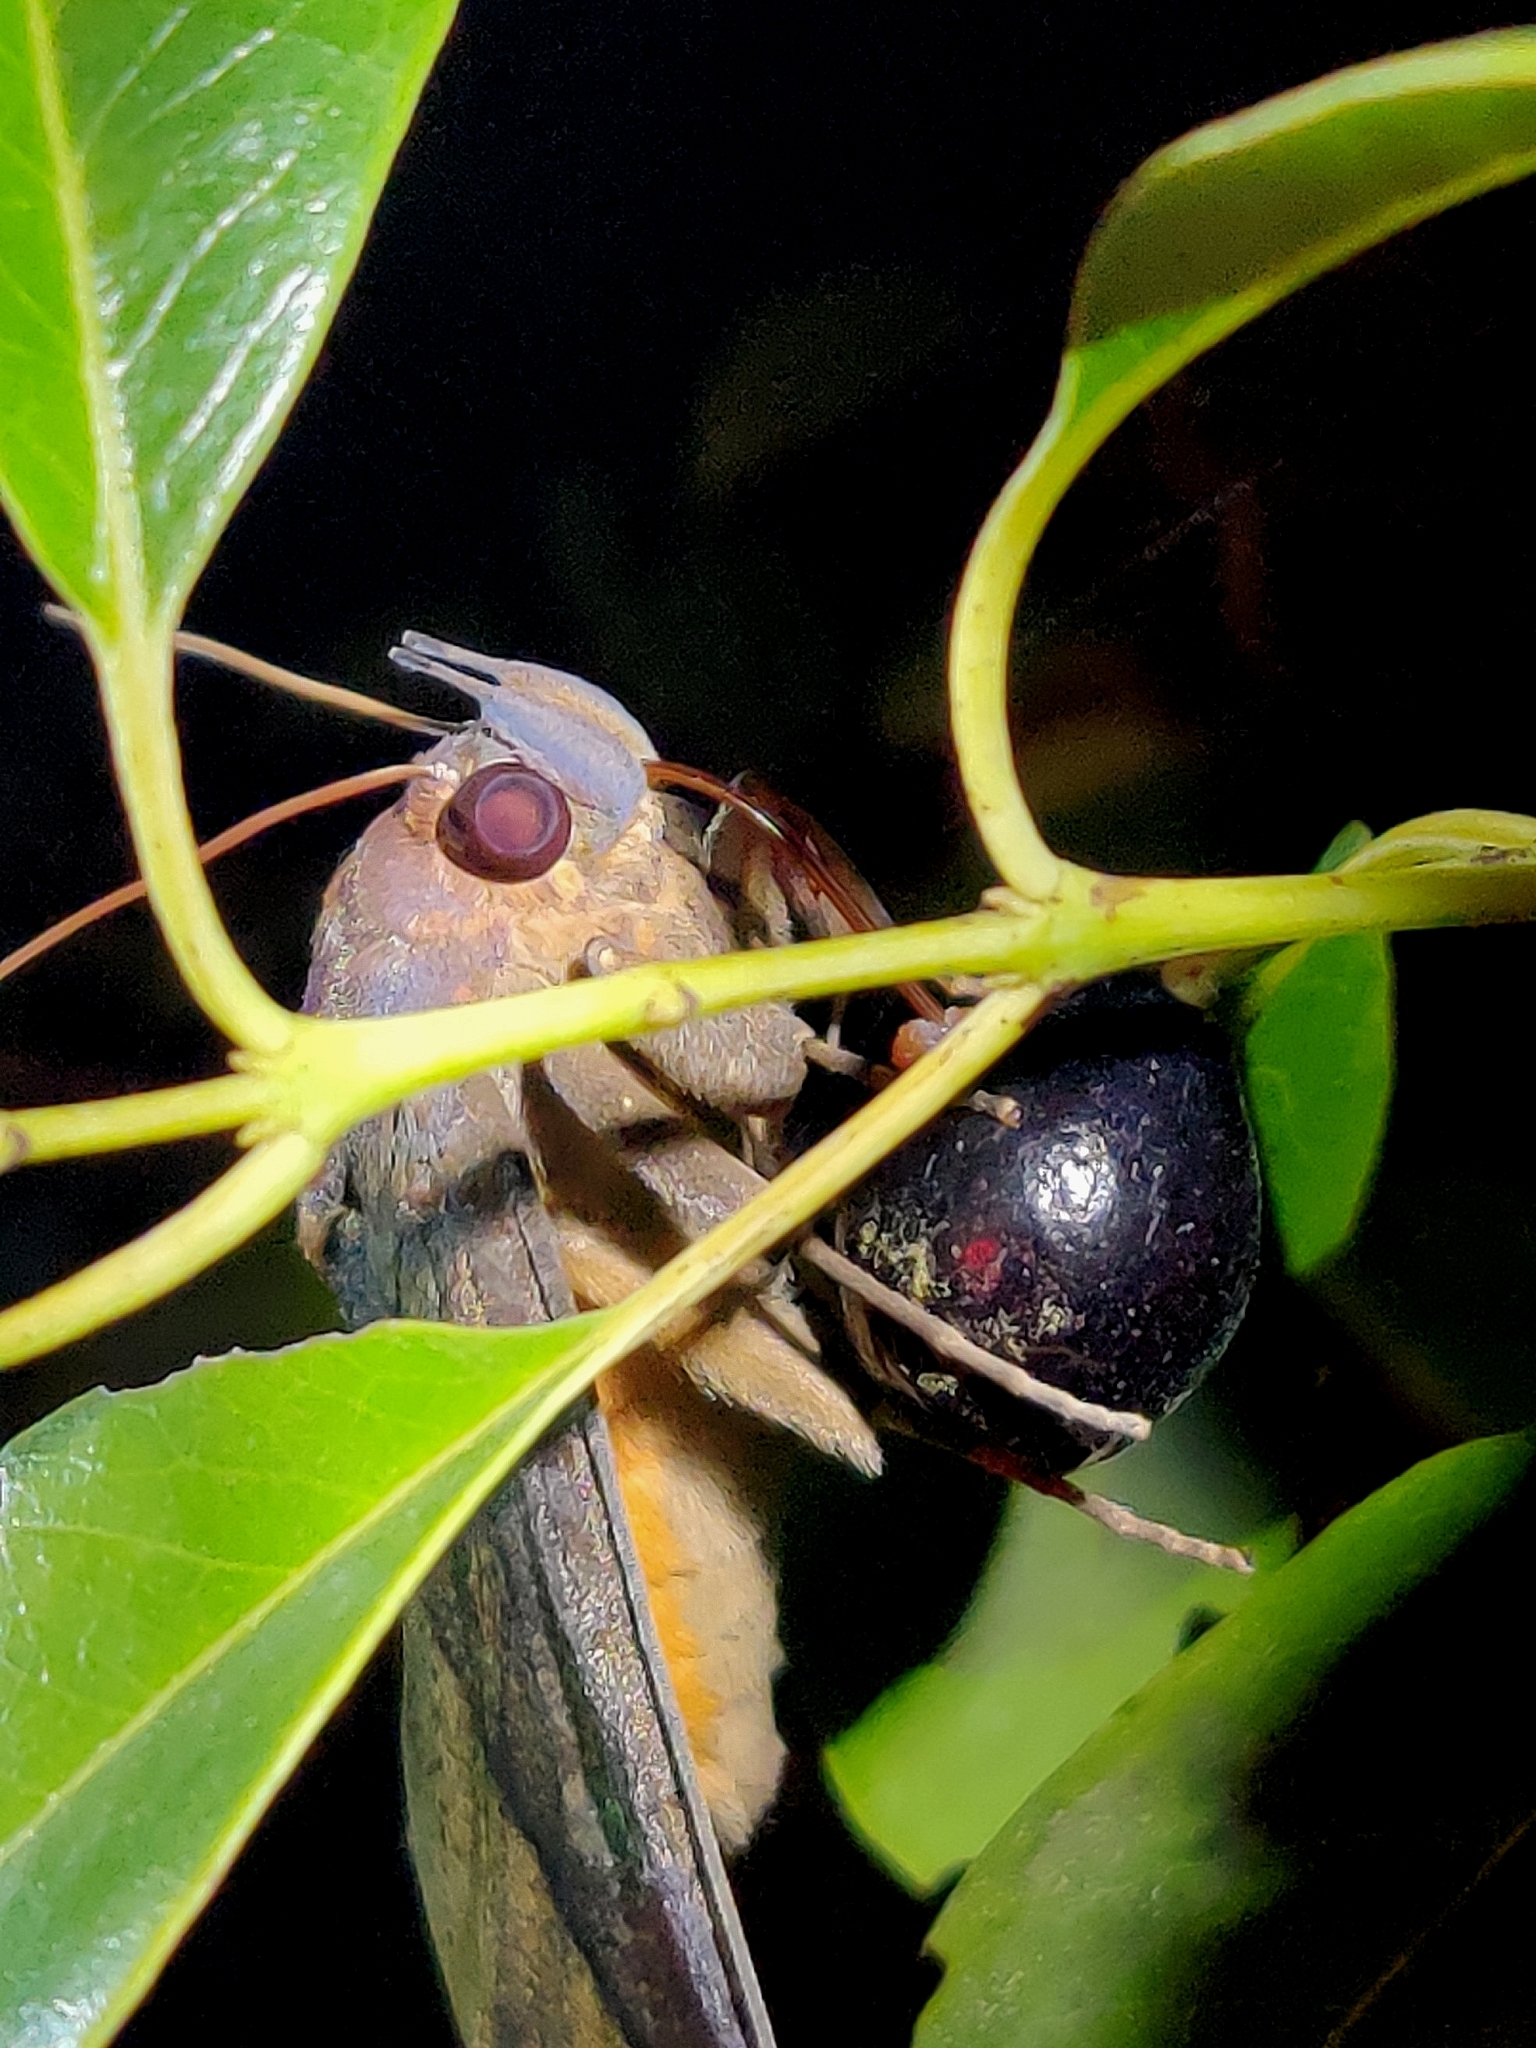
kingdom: Animalia
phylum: Arthropoda
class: Insecta
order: Lepidoptera
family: Erebidae
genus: Eudocima
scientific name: Eudocima phalonia
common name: Wasp
